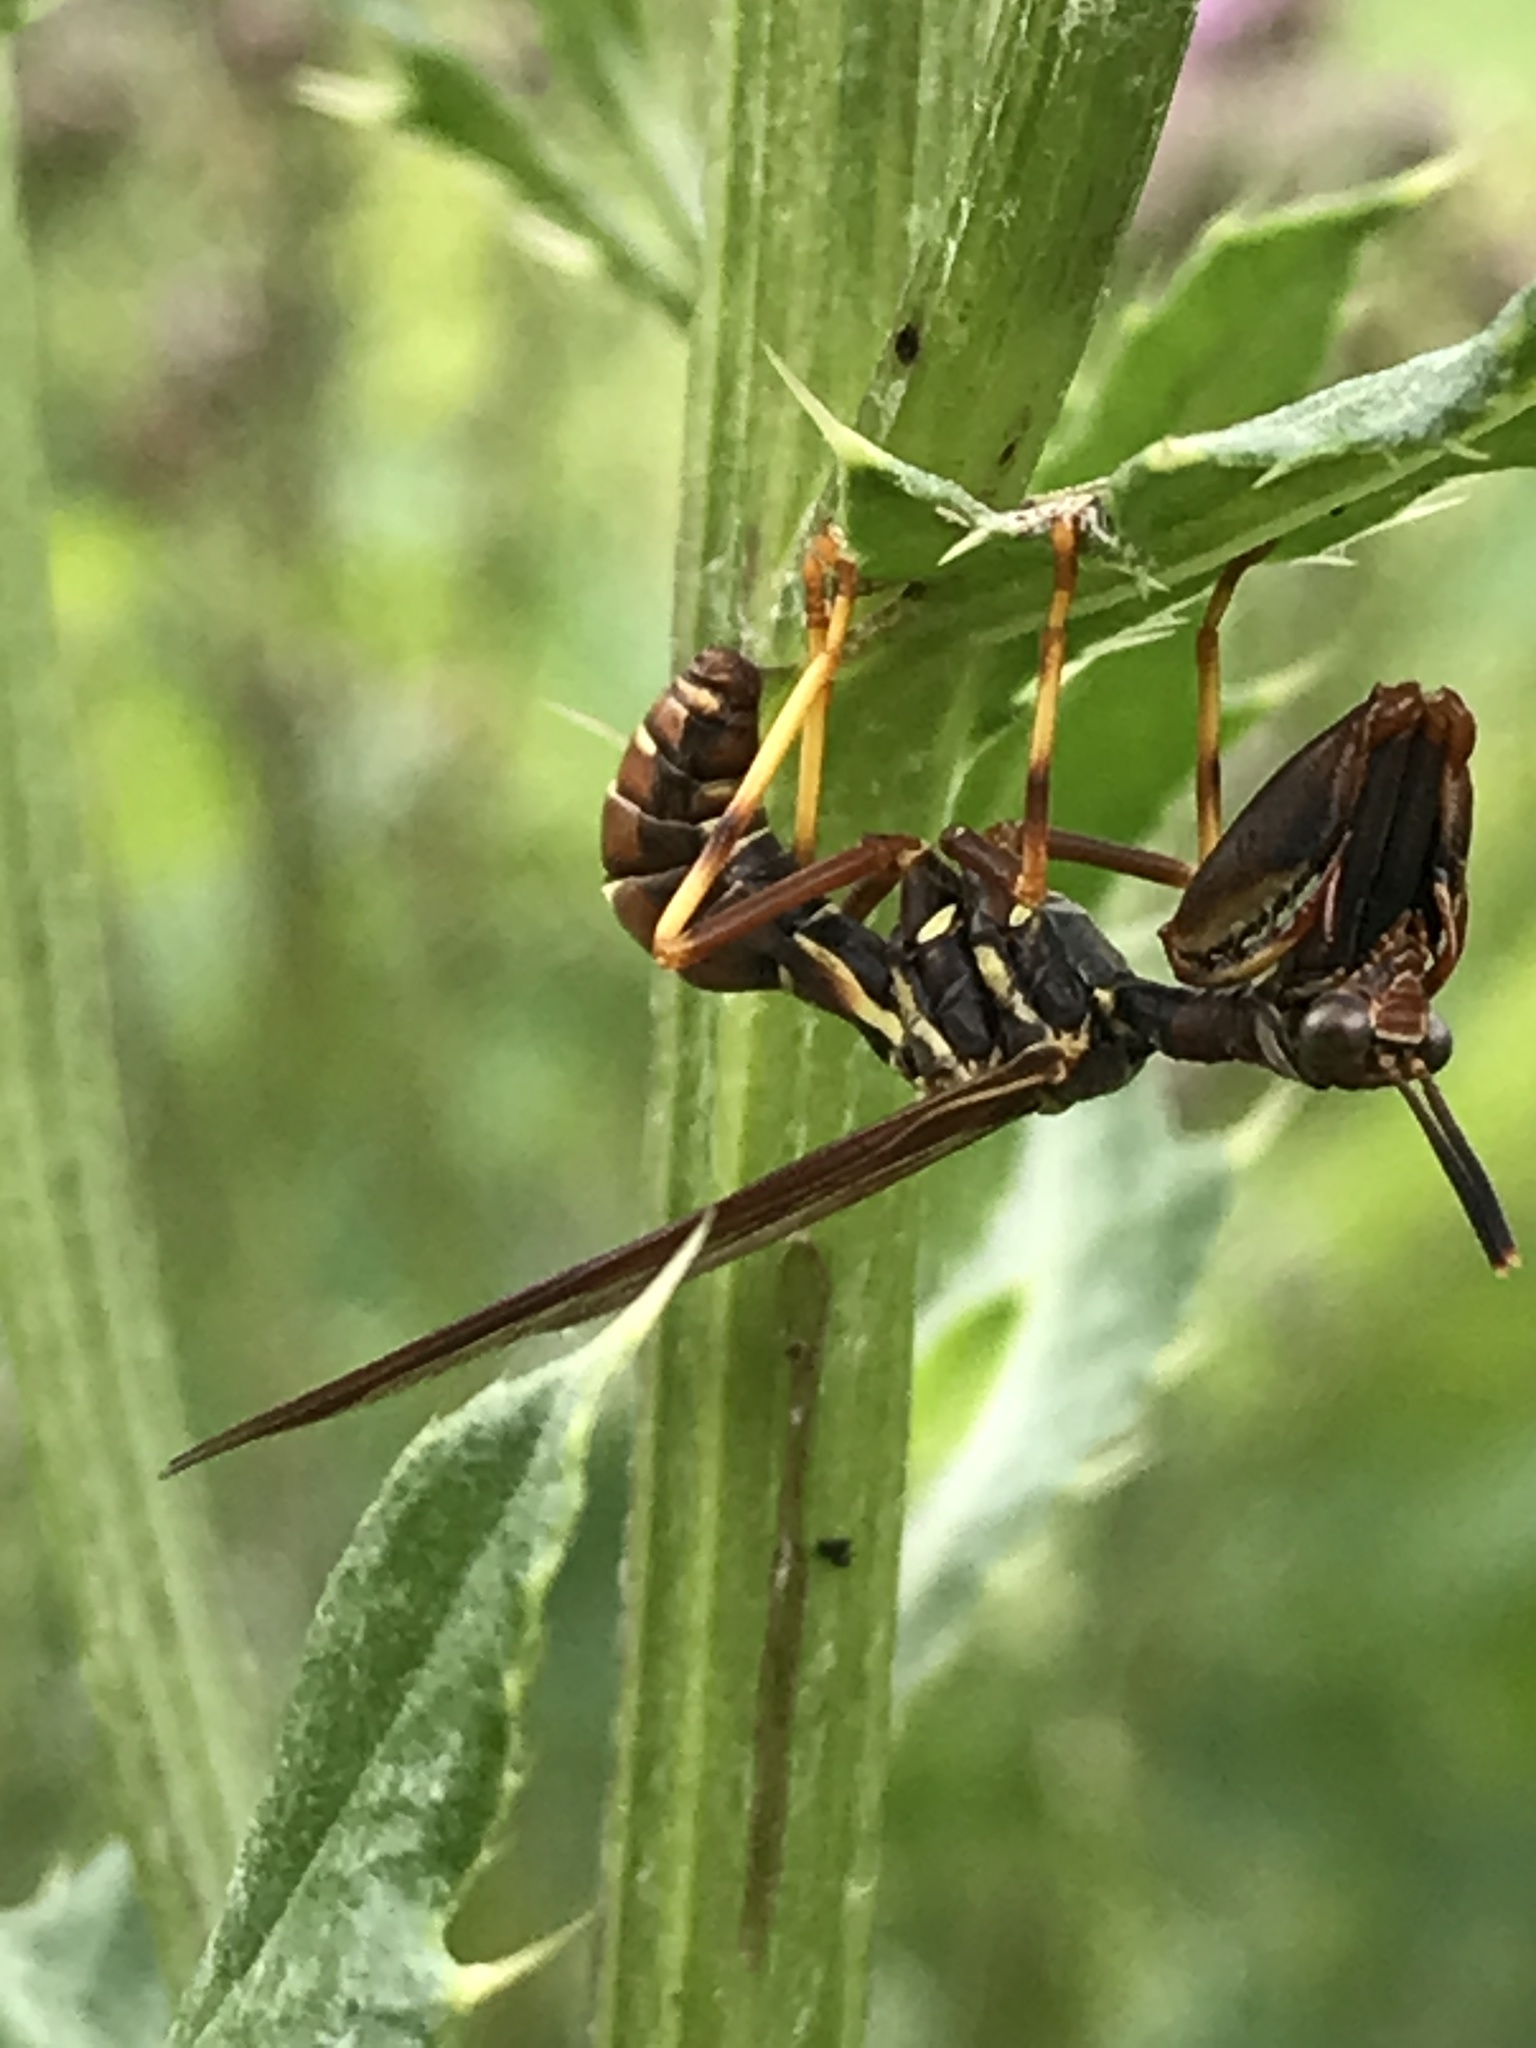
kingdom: Animalia
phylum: Arthropoda
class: Insecta
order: Neuroptera
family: Mantispidae
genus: Climaciella
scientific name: Climaciella brunnea
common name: Brown wasp mantidfly
